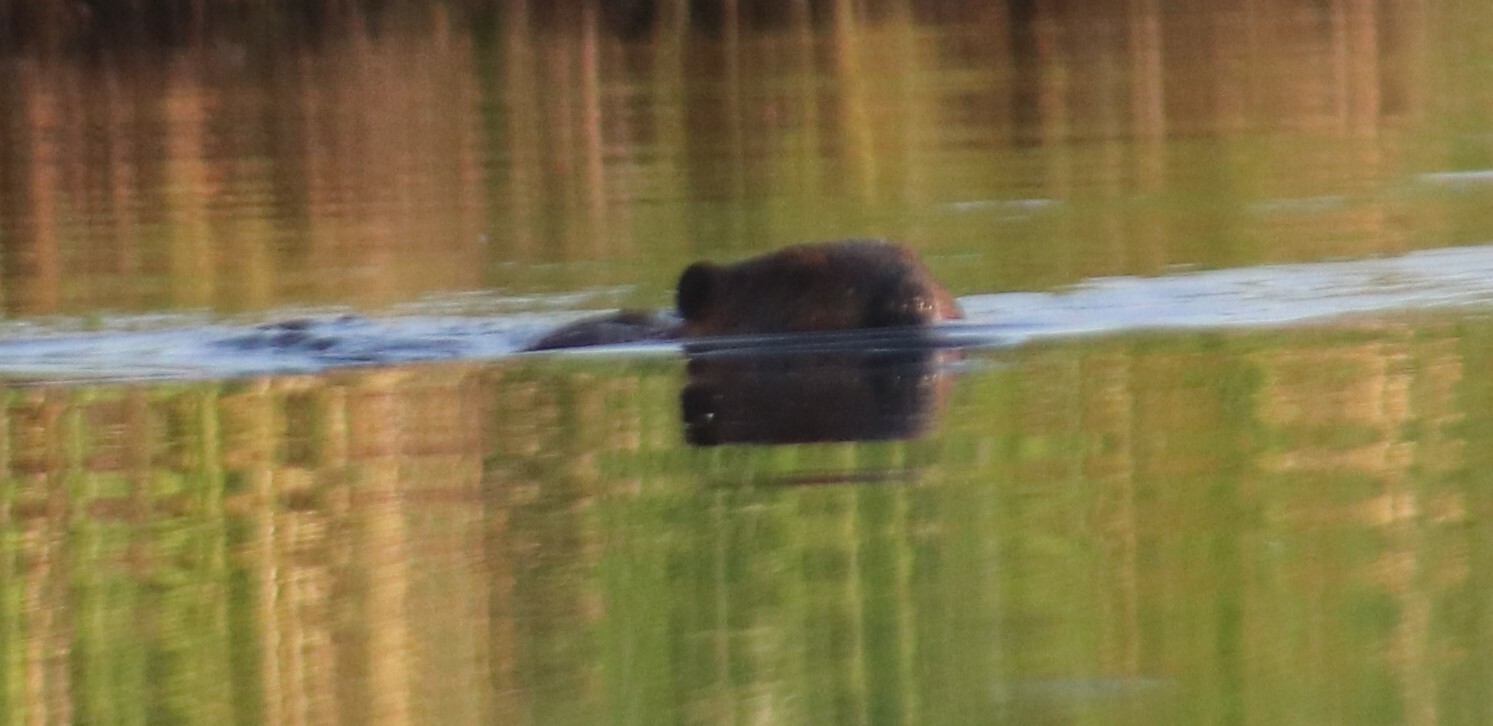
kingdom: Animalia
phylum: Chordata
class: Mammalia
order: Rodentia
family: Castoridae
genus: Castor
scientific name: Castor canadensis
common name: American beaver
